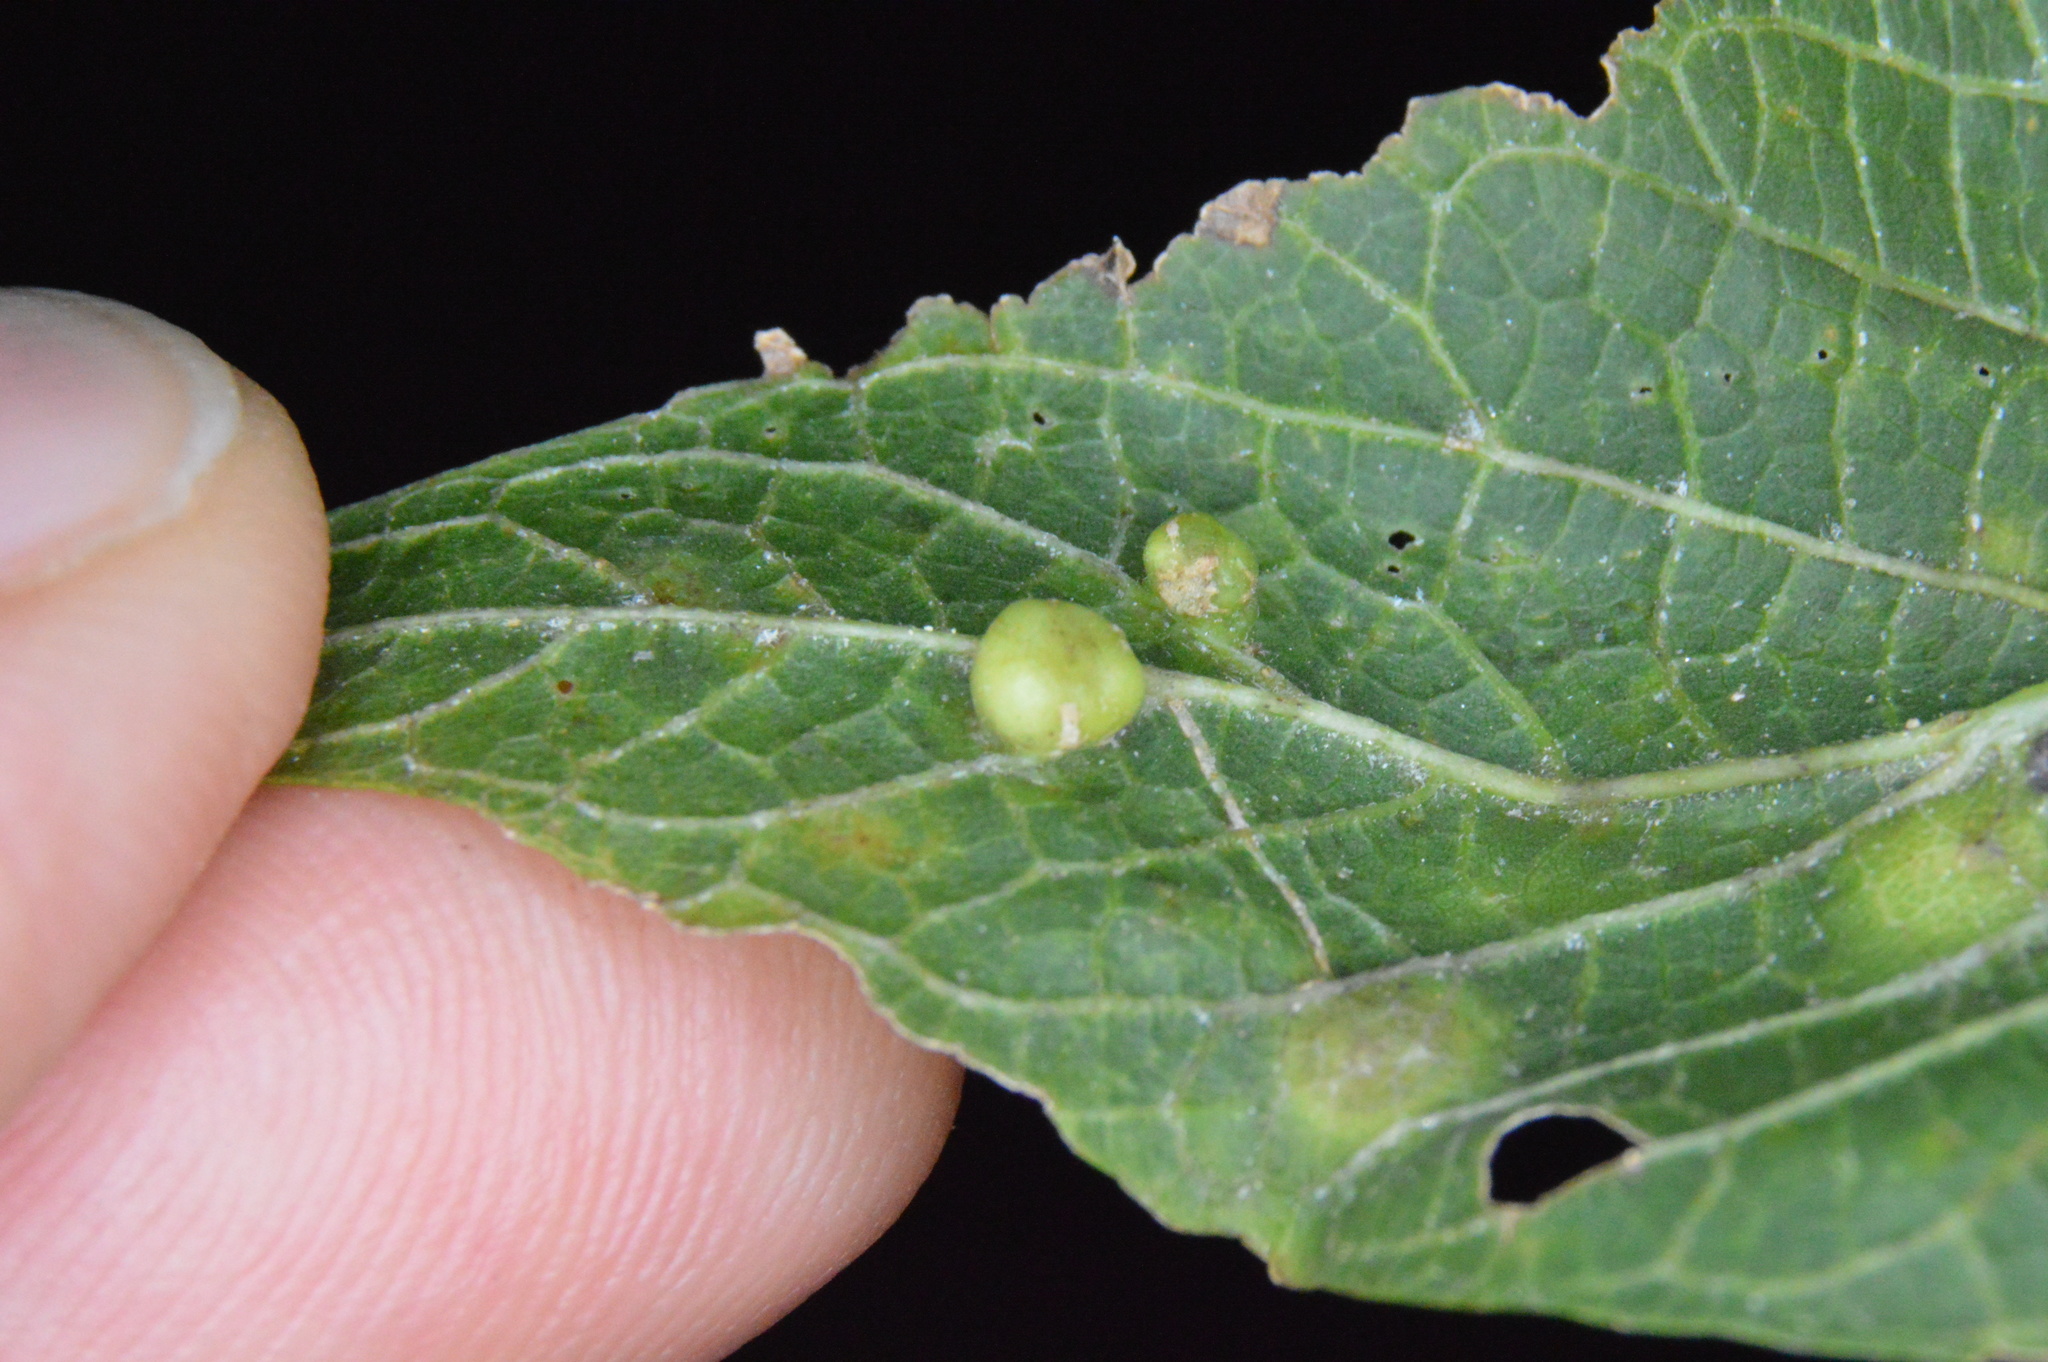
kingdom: Animalia
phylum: Arthropoda
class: Insecta
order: Hemiptera
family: Aphalaridae
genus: Pachypsylla
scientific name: Pachypsylla celtidismamma
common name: Hackberry nipplegall psyllid
